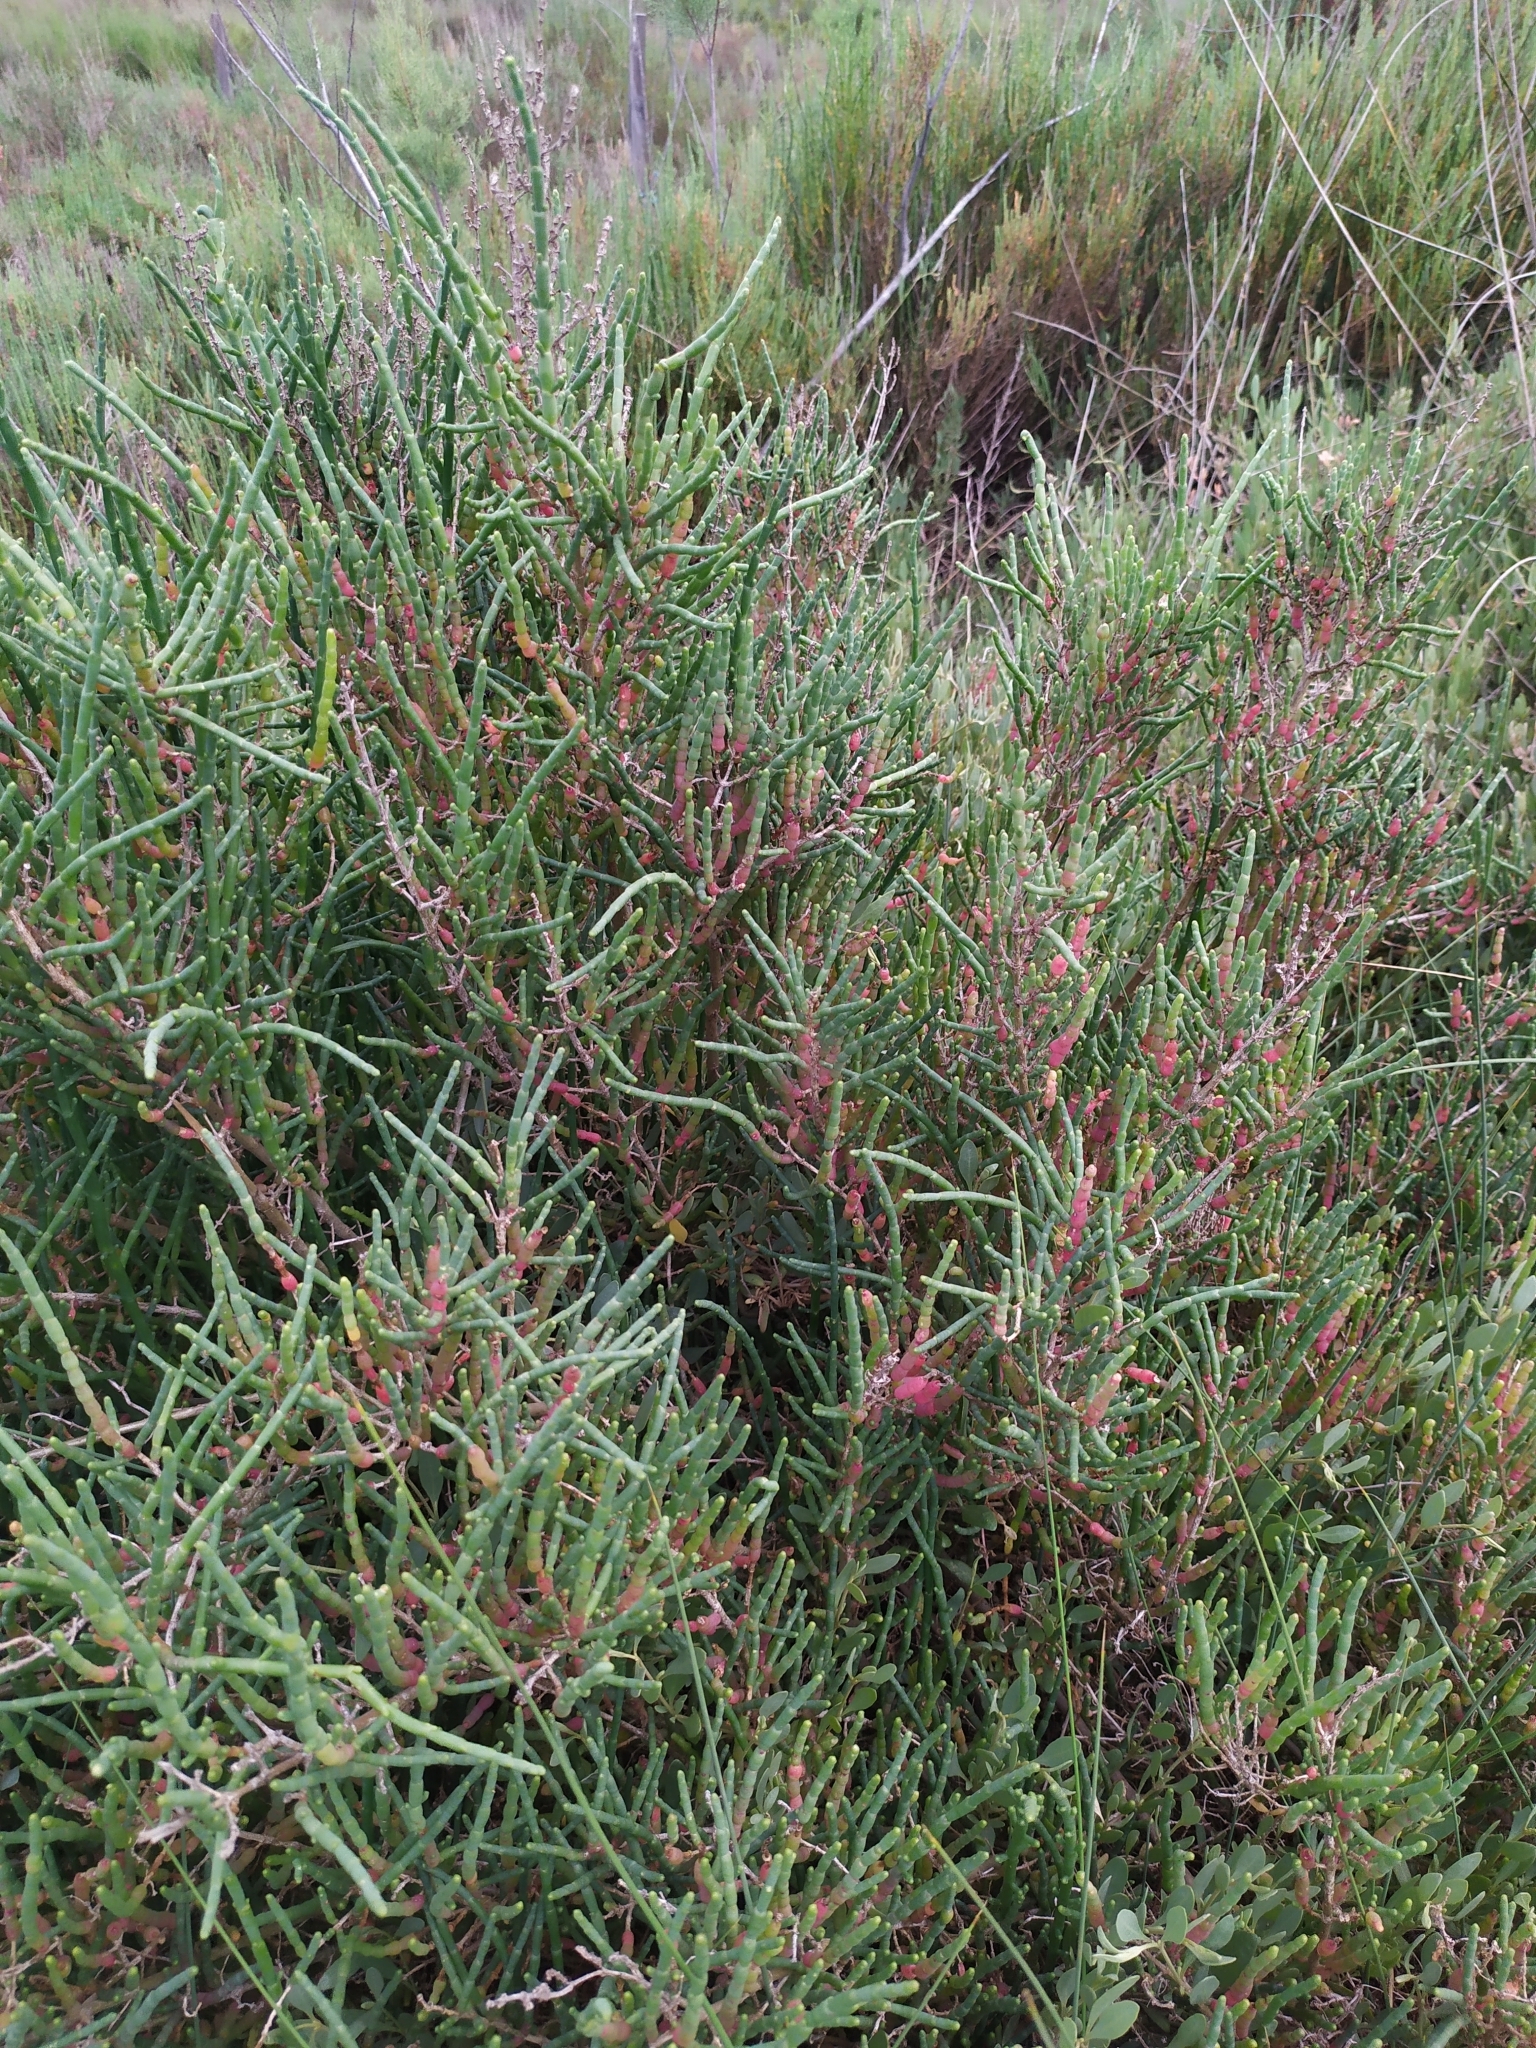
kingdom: Plantae
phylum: Tracheophyta
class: Magnoliopsida
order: Caryophyllales
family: Amaranthaceae
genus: Arthrocaulon
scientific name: Arthrocaulon macrostachyum
